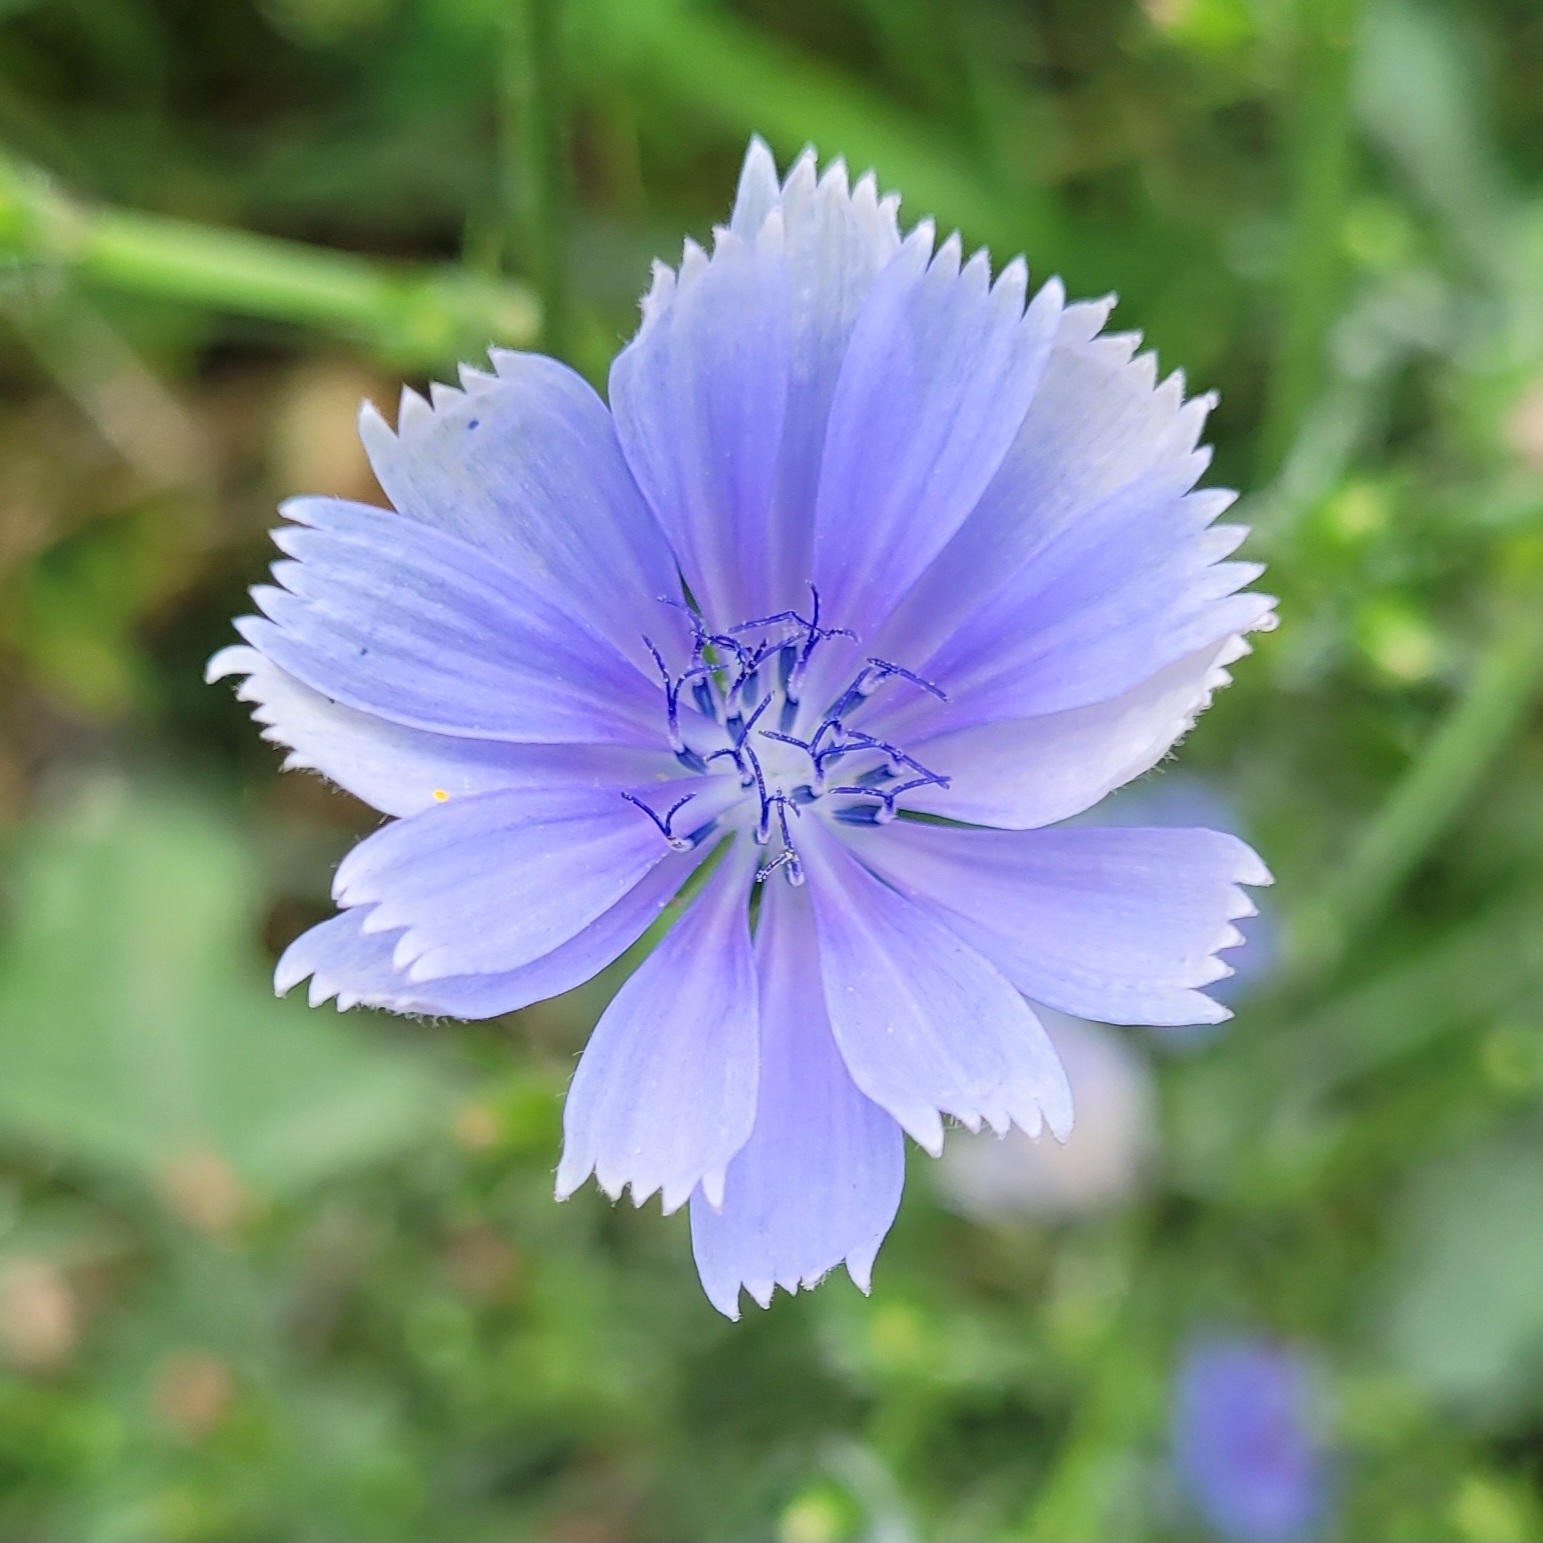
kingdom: Plantae
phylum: Tracheophyta
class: Magnoliopsida
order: Asterales
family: Asteraceae
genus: Cichorium
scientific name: Cichorium intybus
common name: Chicory
